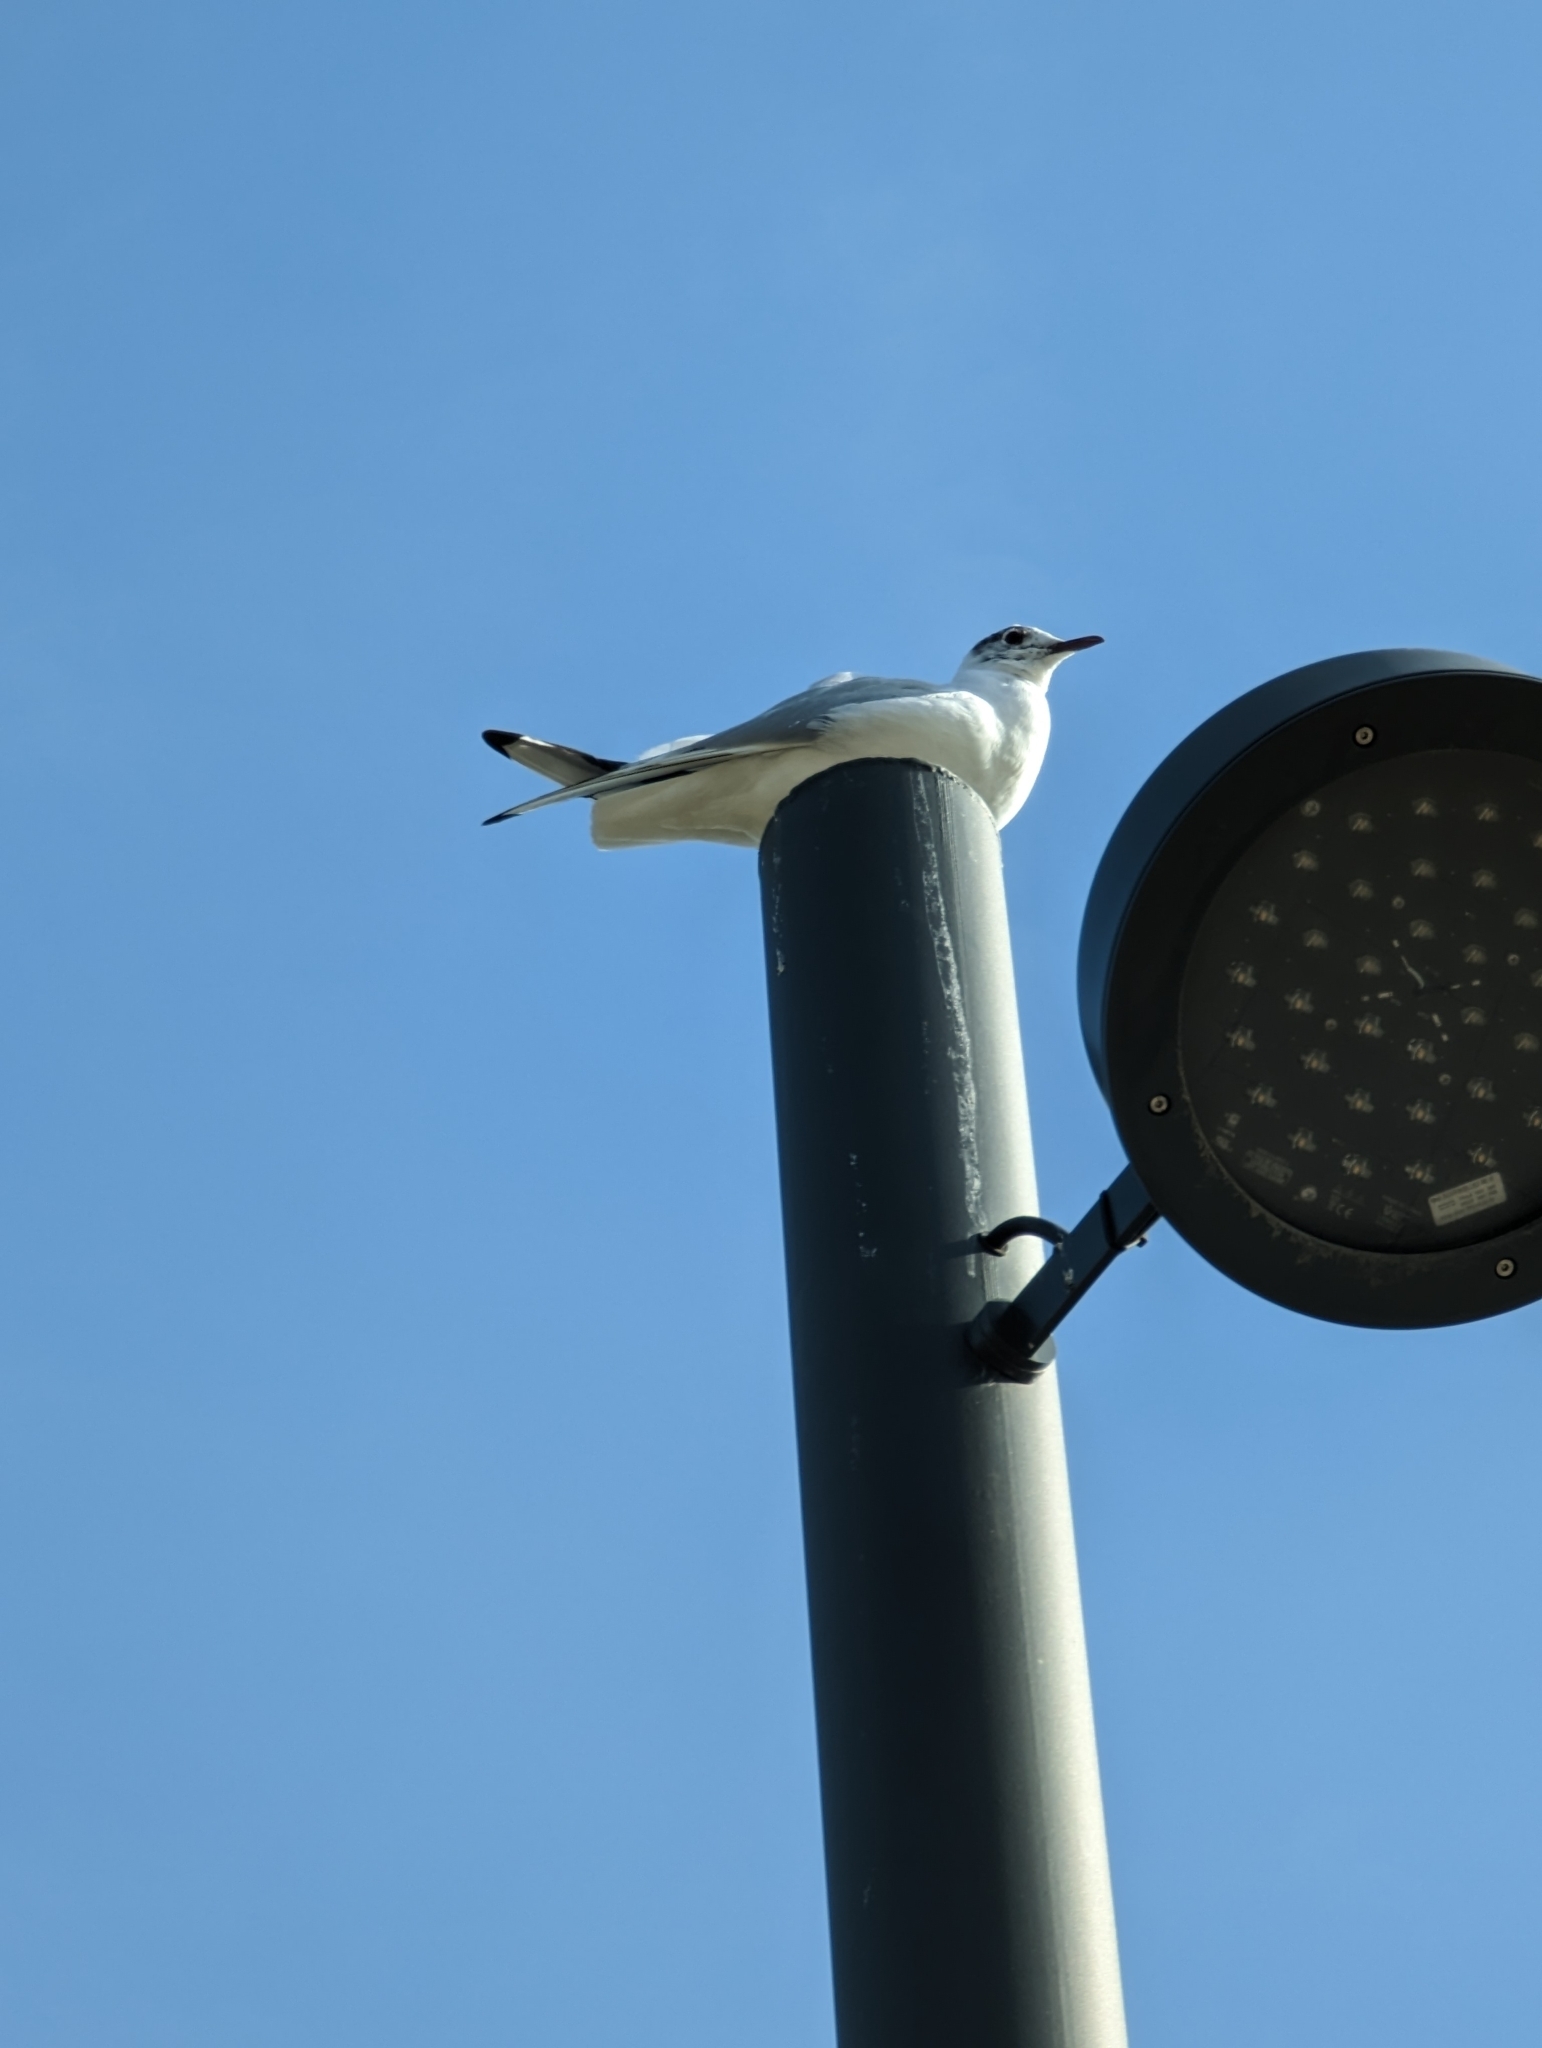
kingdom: Animalia
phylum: Chordata
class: Aves
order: Charadriiformes
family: Laridae
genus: Chroicocephalus
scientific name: Chroicocephalus ridibundus
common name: Black-headed gull
